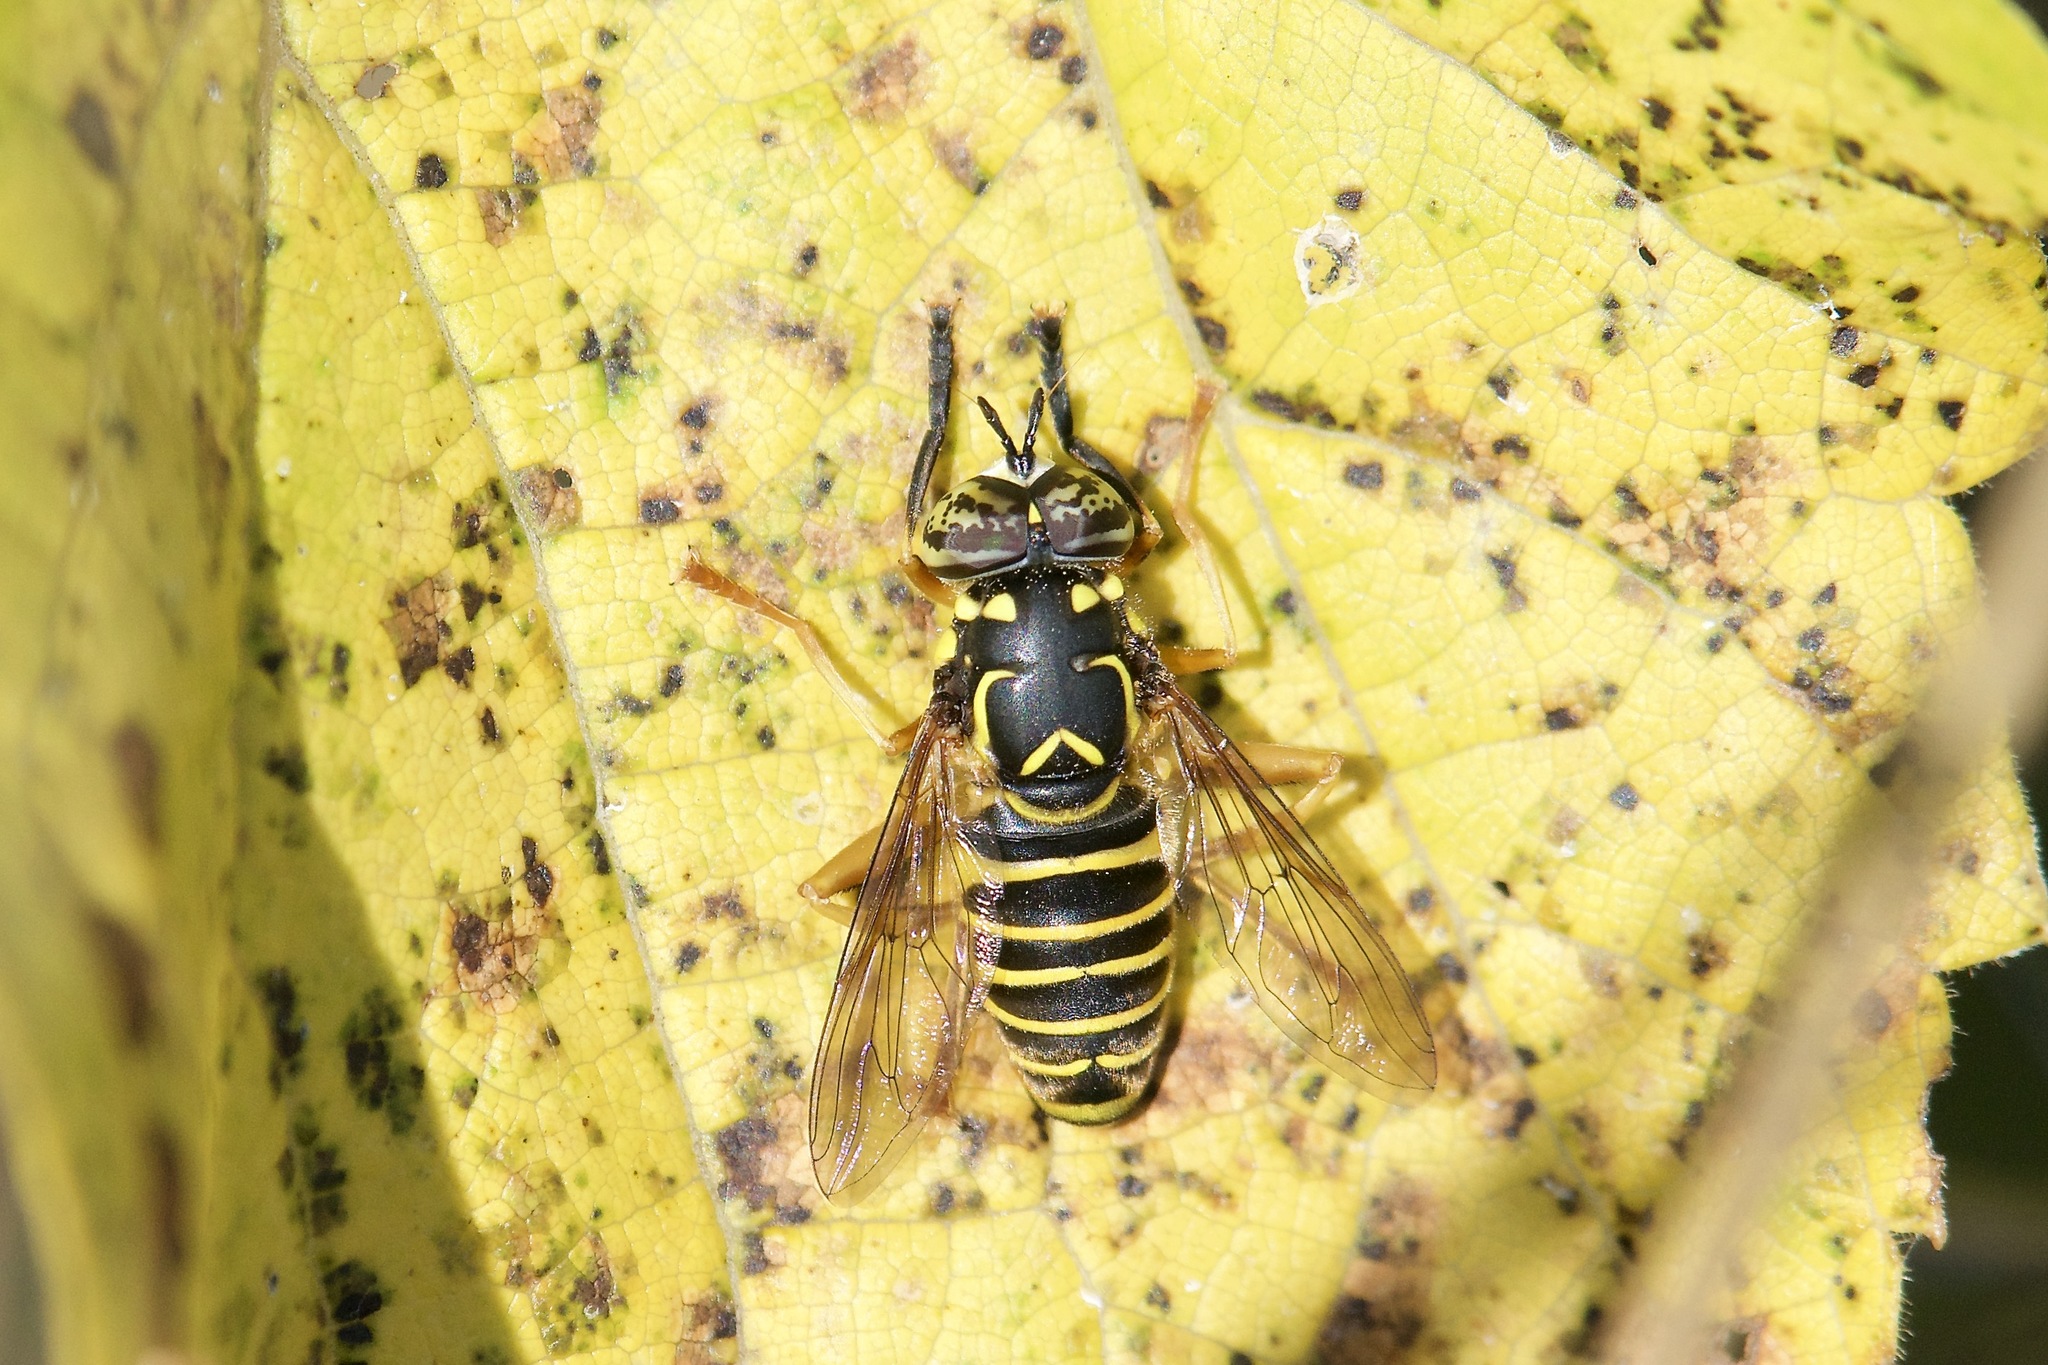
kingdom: Animalia
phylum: Arthropoda
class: Insecta
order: Diptera
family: Syrphidae
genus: Spilomyia
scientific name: Spilomyia longicornis
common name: Eastern hornet fly
